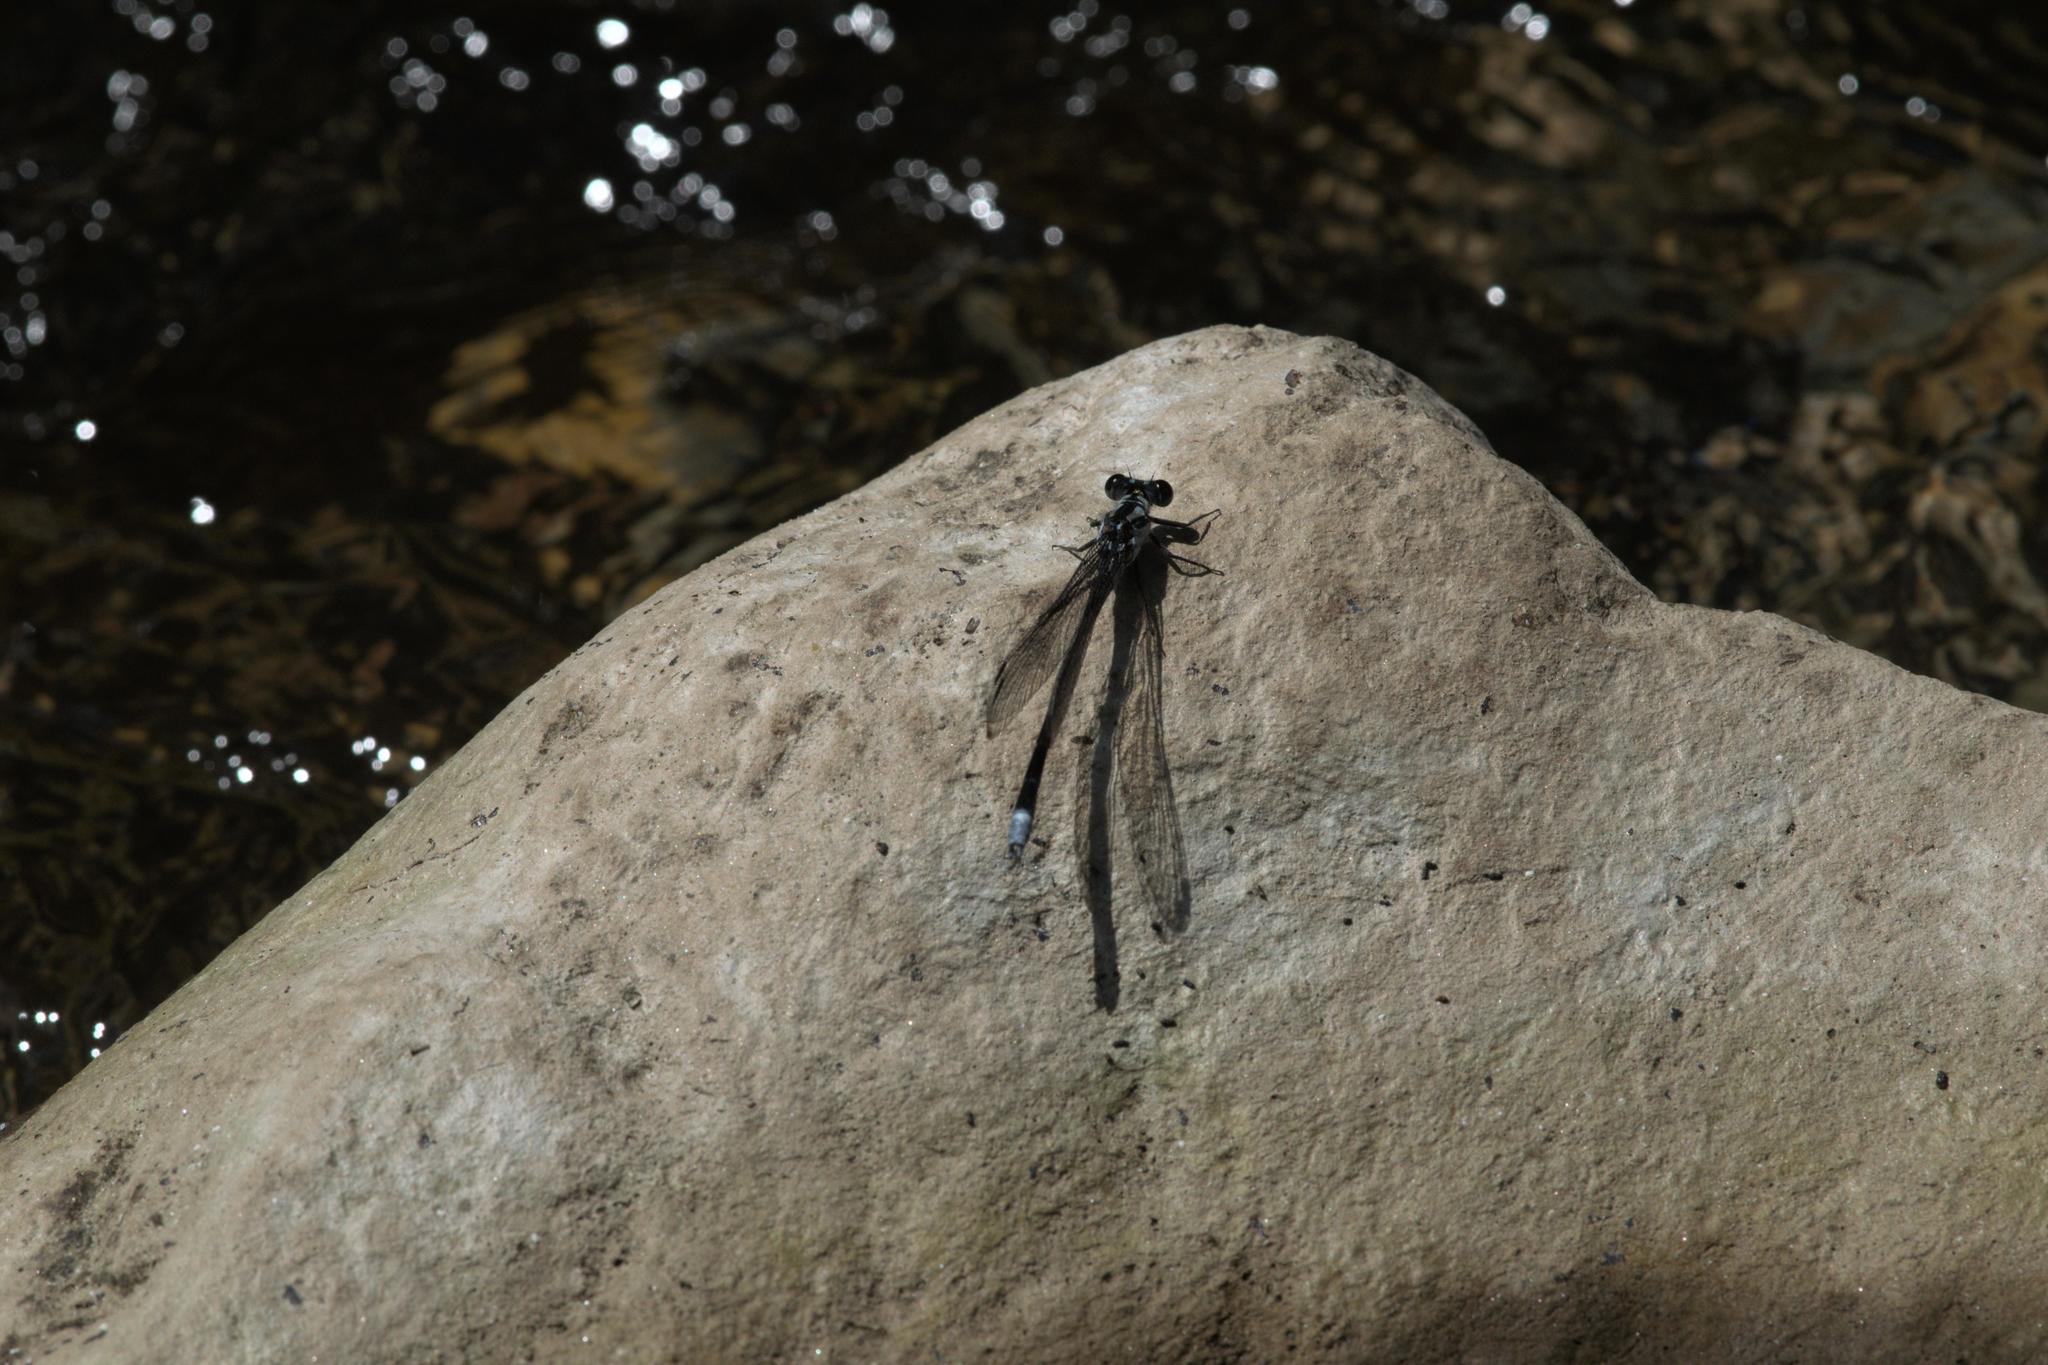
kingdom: Animalia
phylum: Arthropoda
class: Insecta
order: Odonata
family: Euphaeidae
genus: Anisopleura
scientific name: Anisopleura lestoides
